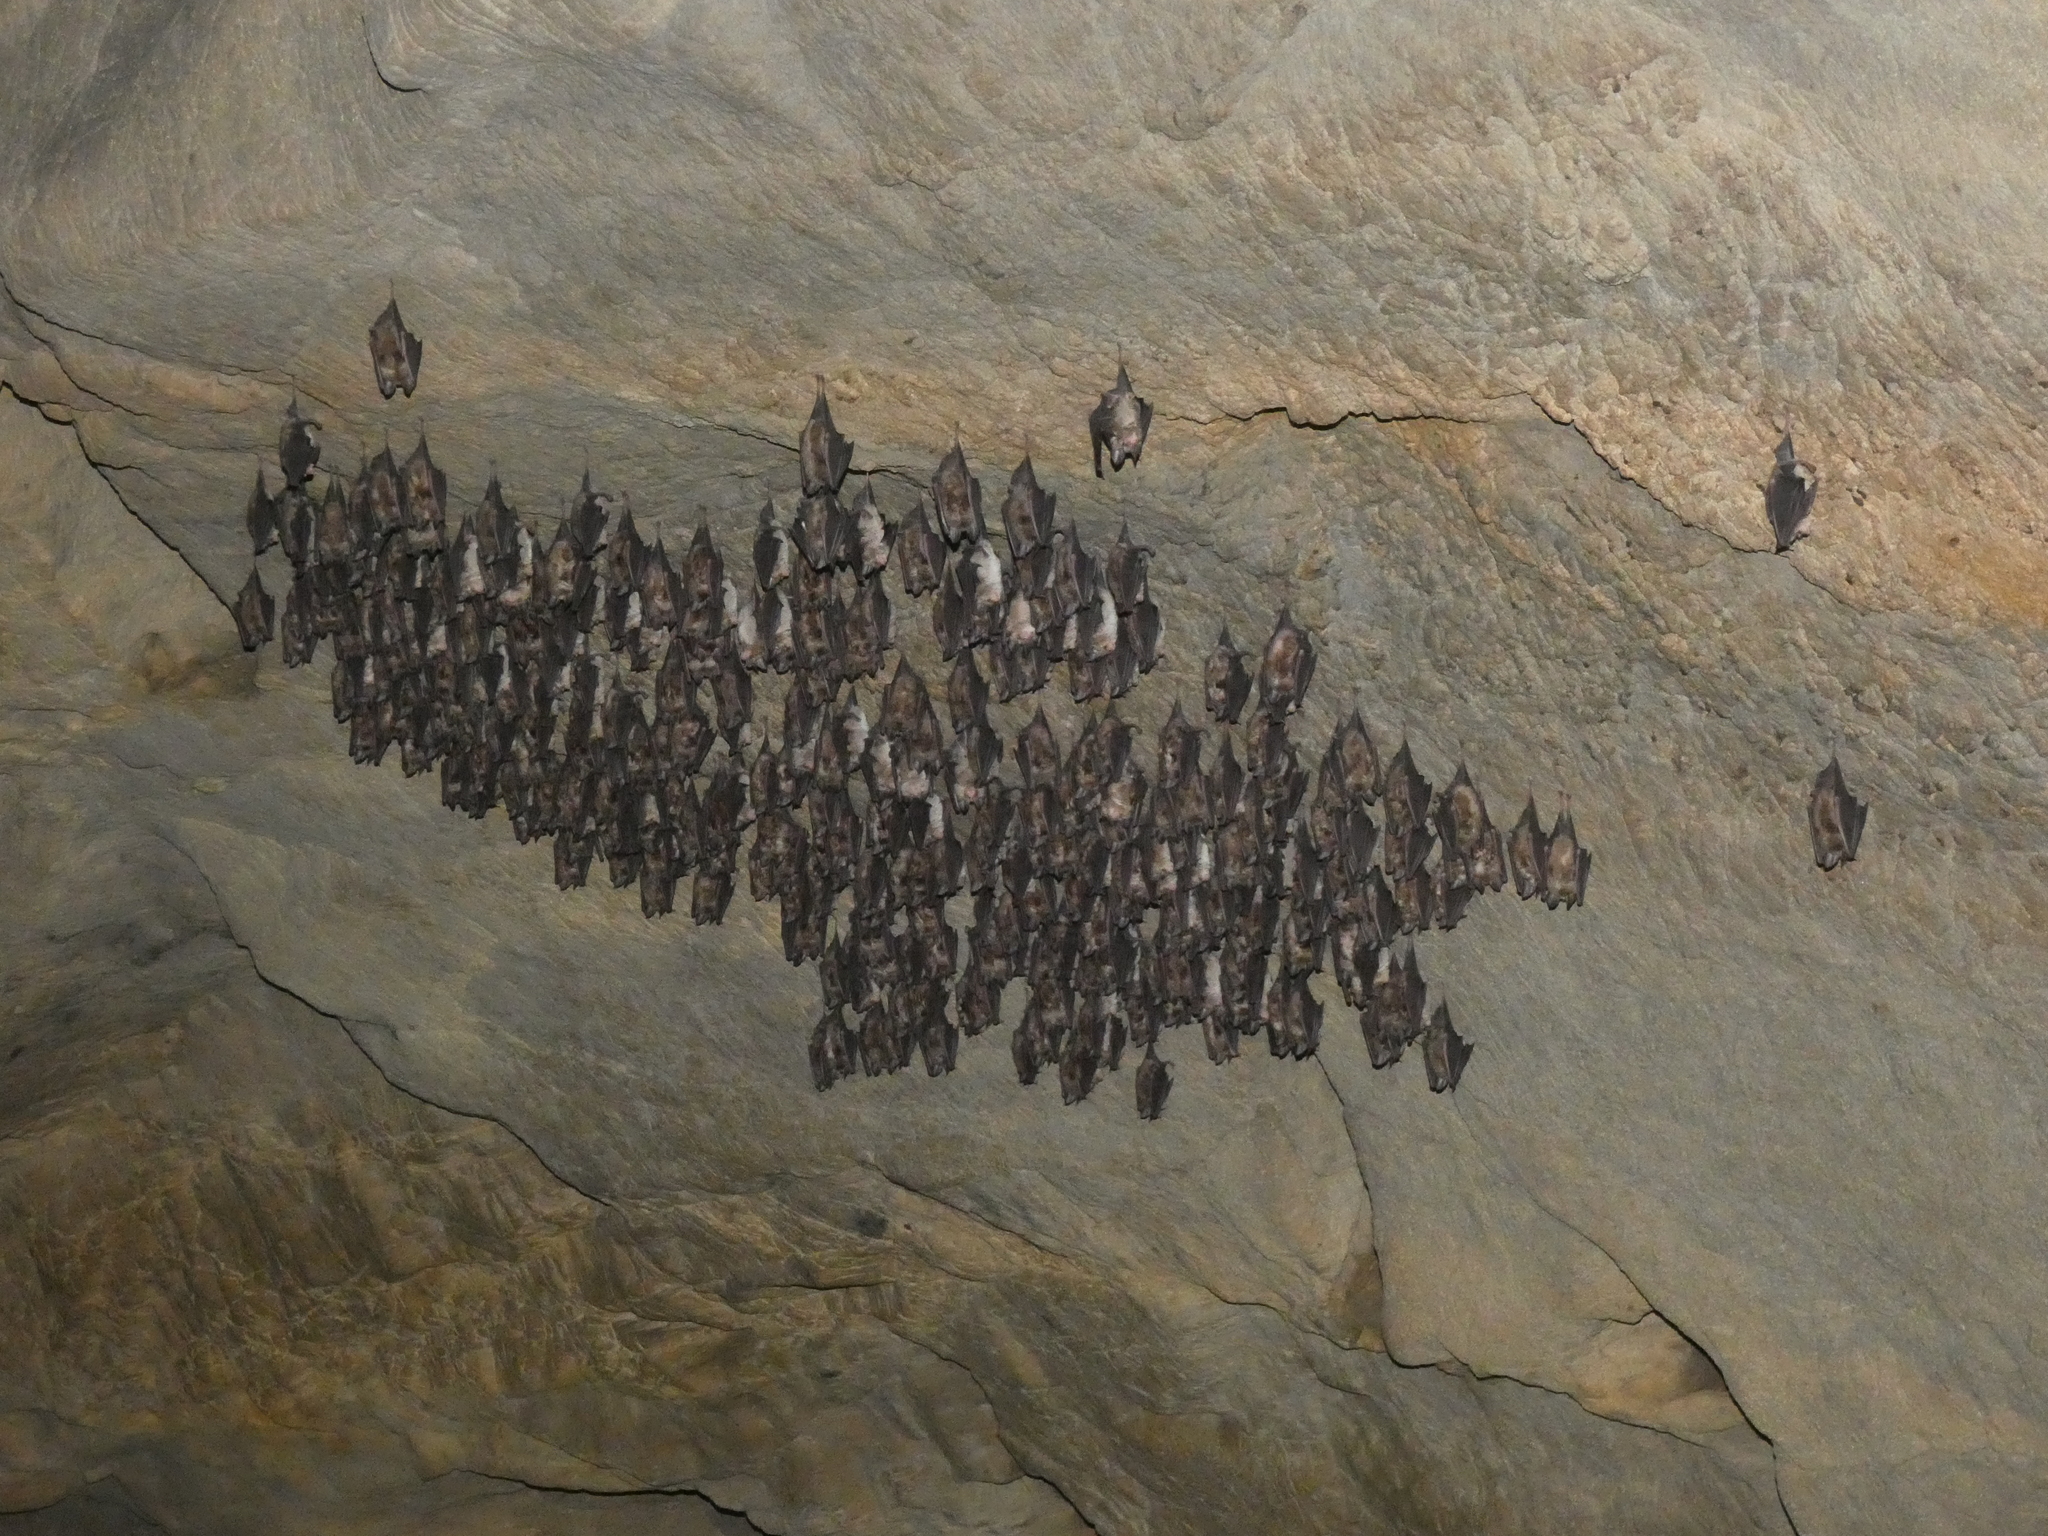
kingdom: Animalia
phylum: Chordata
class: Mammalia
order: Chiroptera
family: Rhinolophidae
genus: Rhinolophus
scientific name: Rhinolophus euryale
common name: Mediterranean horseshoe bat
